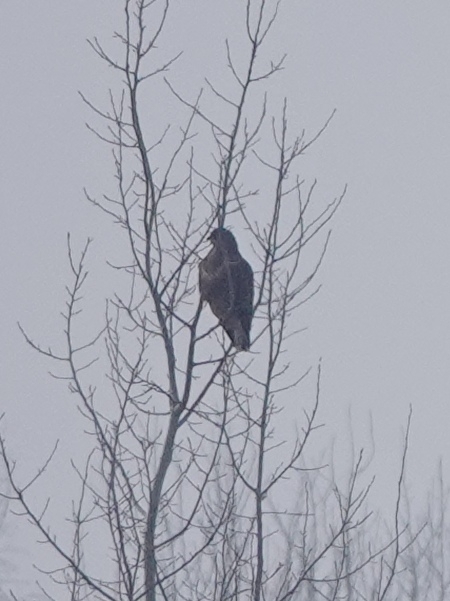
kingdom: Animalia
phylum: Chordata
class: Aves
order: Accipitriformes
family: Accipitridae
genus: Buteo
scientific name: Buteo buteo
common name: Common buzzard
